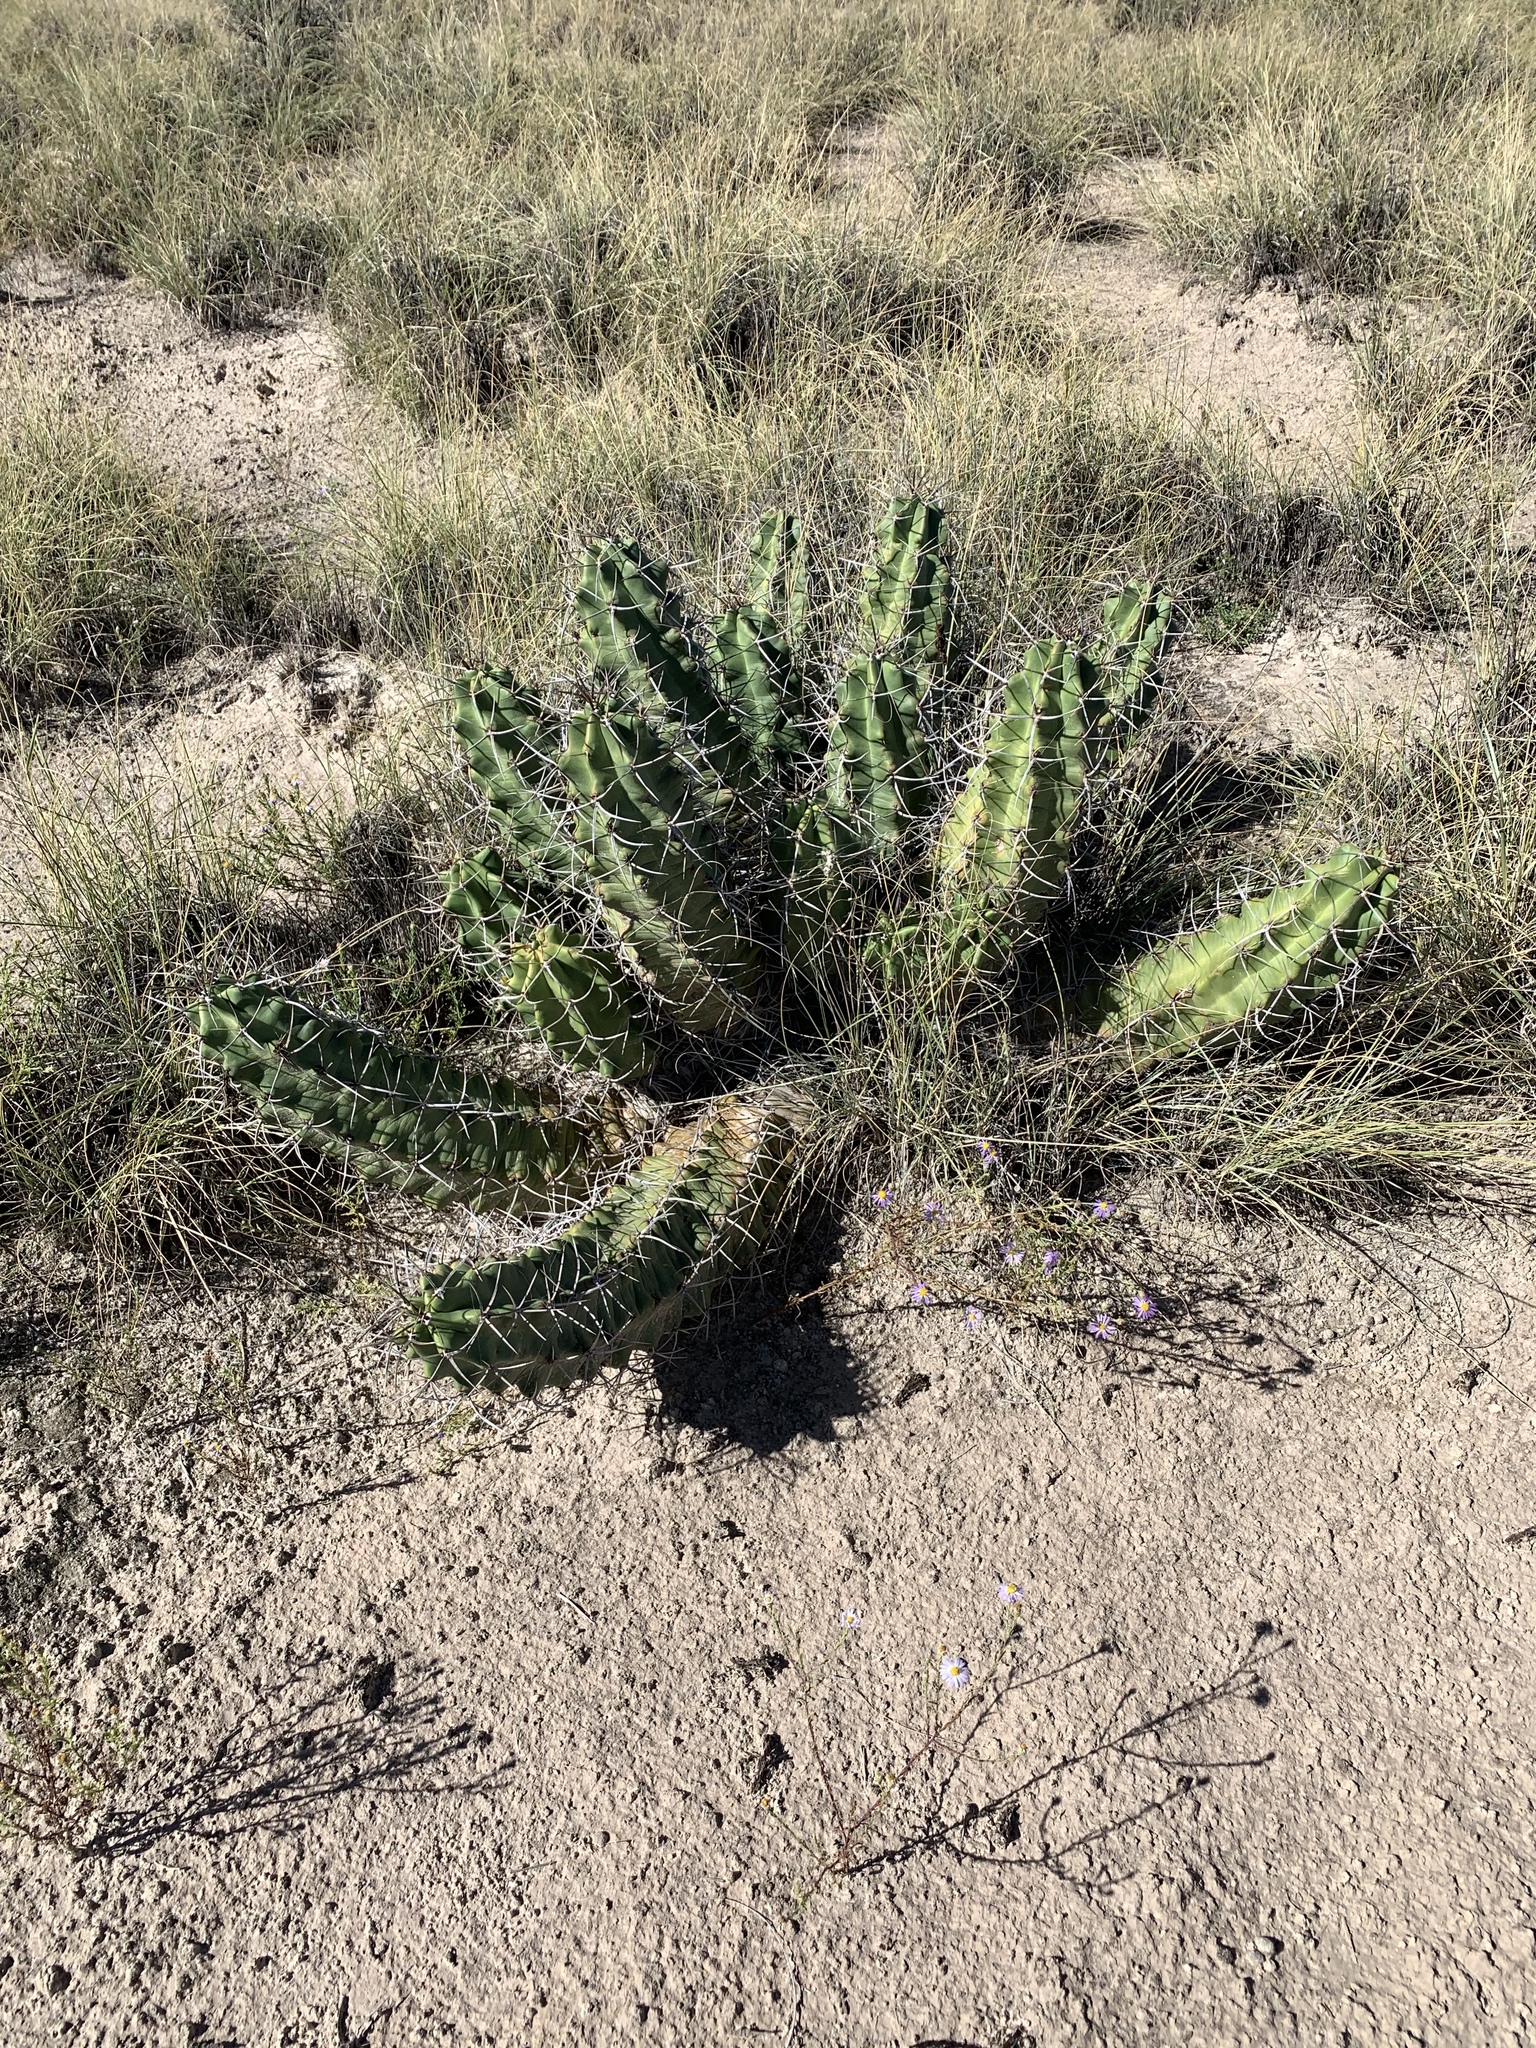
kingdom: Plantae
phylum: Tracheophyta
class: Magnoliopsida
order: Caryophyllales
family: Cactaceae
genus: Echinocereus
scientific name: Echinocereus triglochidiatus
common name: Claretcup hedgehog
